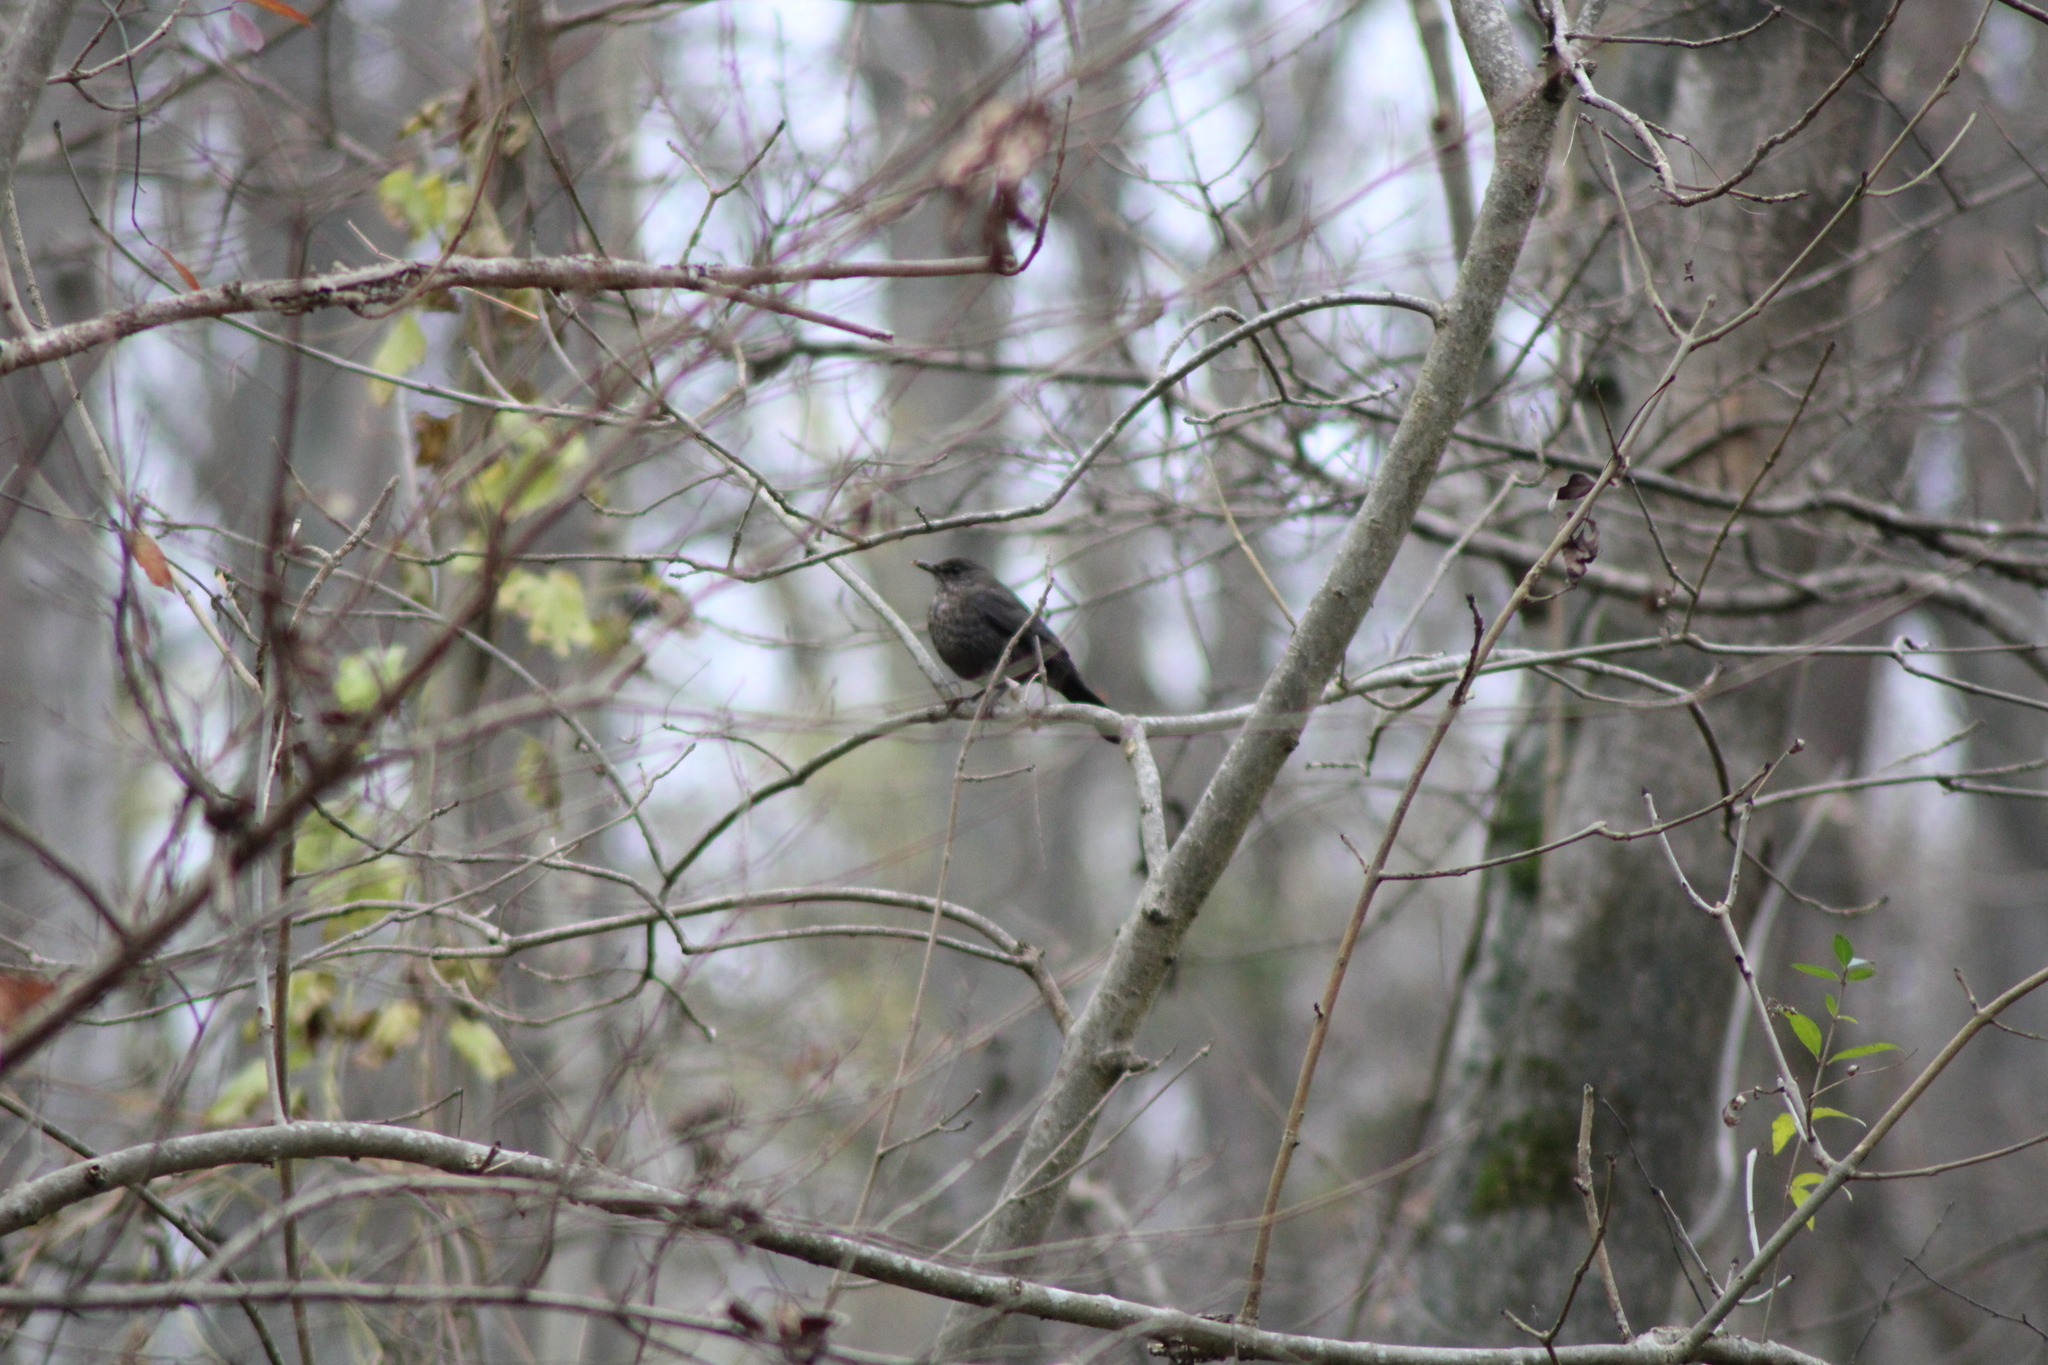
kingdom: Animalia
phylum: Chordata
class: Aves
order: Passeriformes
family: Turdidae
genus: Turdus
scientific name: Turdus merula
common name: Common blackbird
